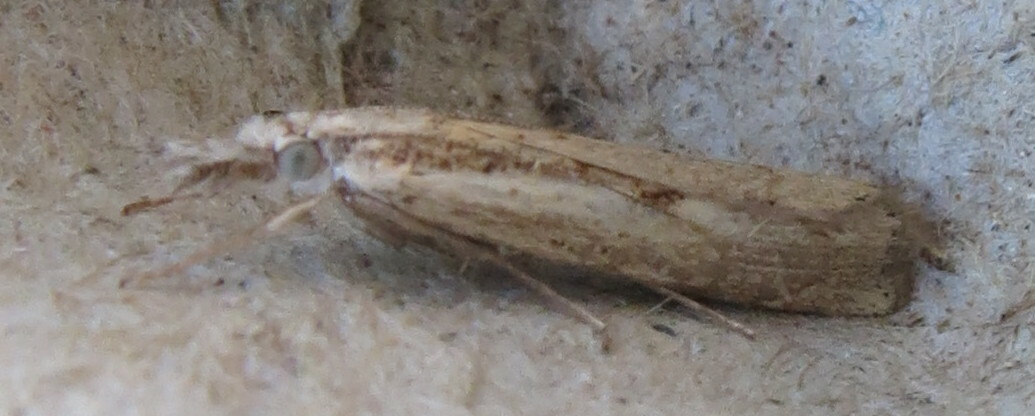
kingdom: Animalia
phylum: Arthropoda
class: Insecta
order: Lepidoptera
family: Crambidae
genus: Agriphila
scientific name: Agriphila geniculea
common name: Elbow-stripe grass-veneer
